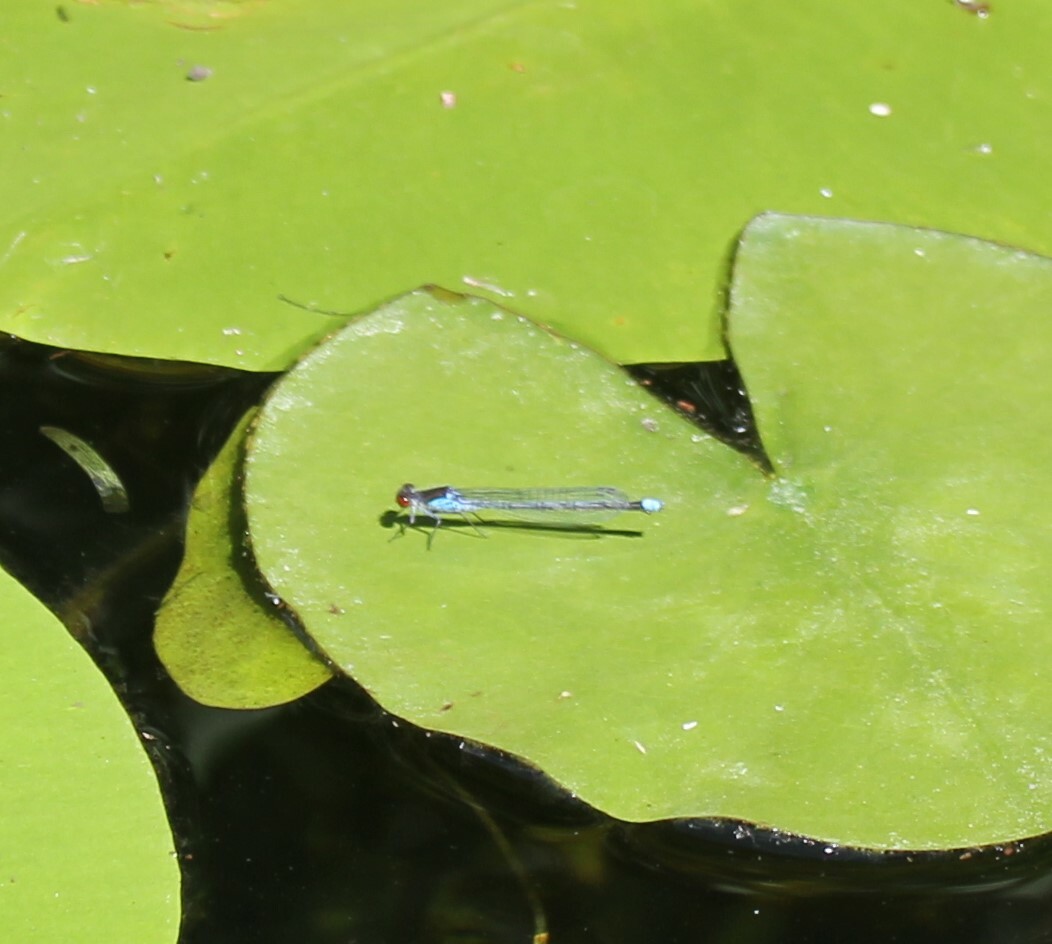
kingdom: Animalia
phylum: Arthropoda
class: Insecta
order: Odonata
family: Coenagrionidae
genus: Erythromma
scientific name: Erythromma najas
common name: Red-eyed damselfly
